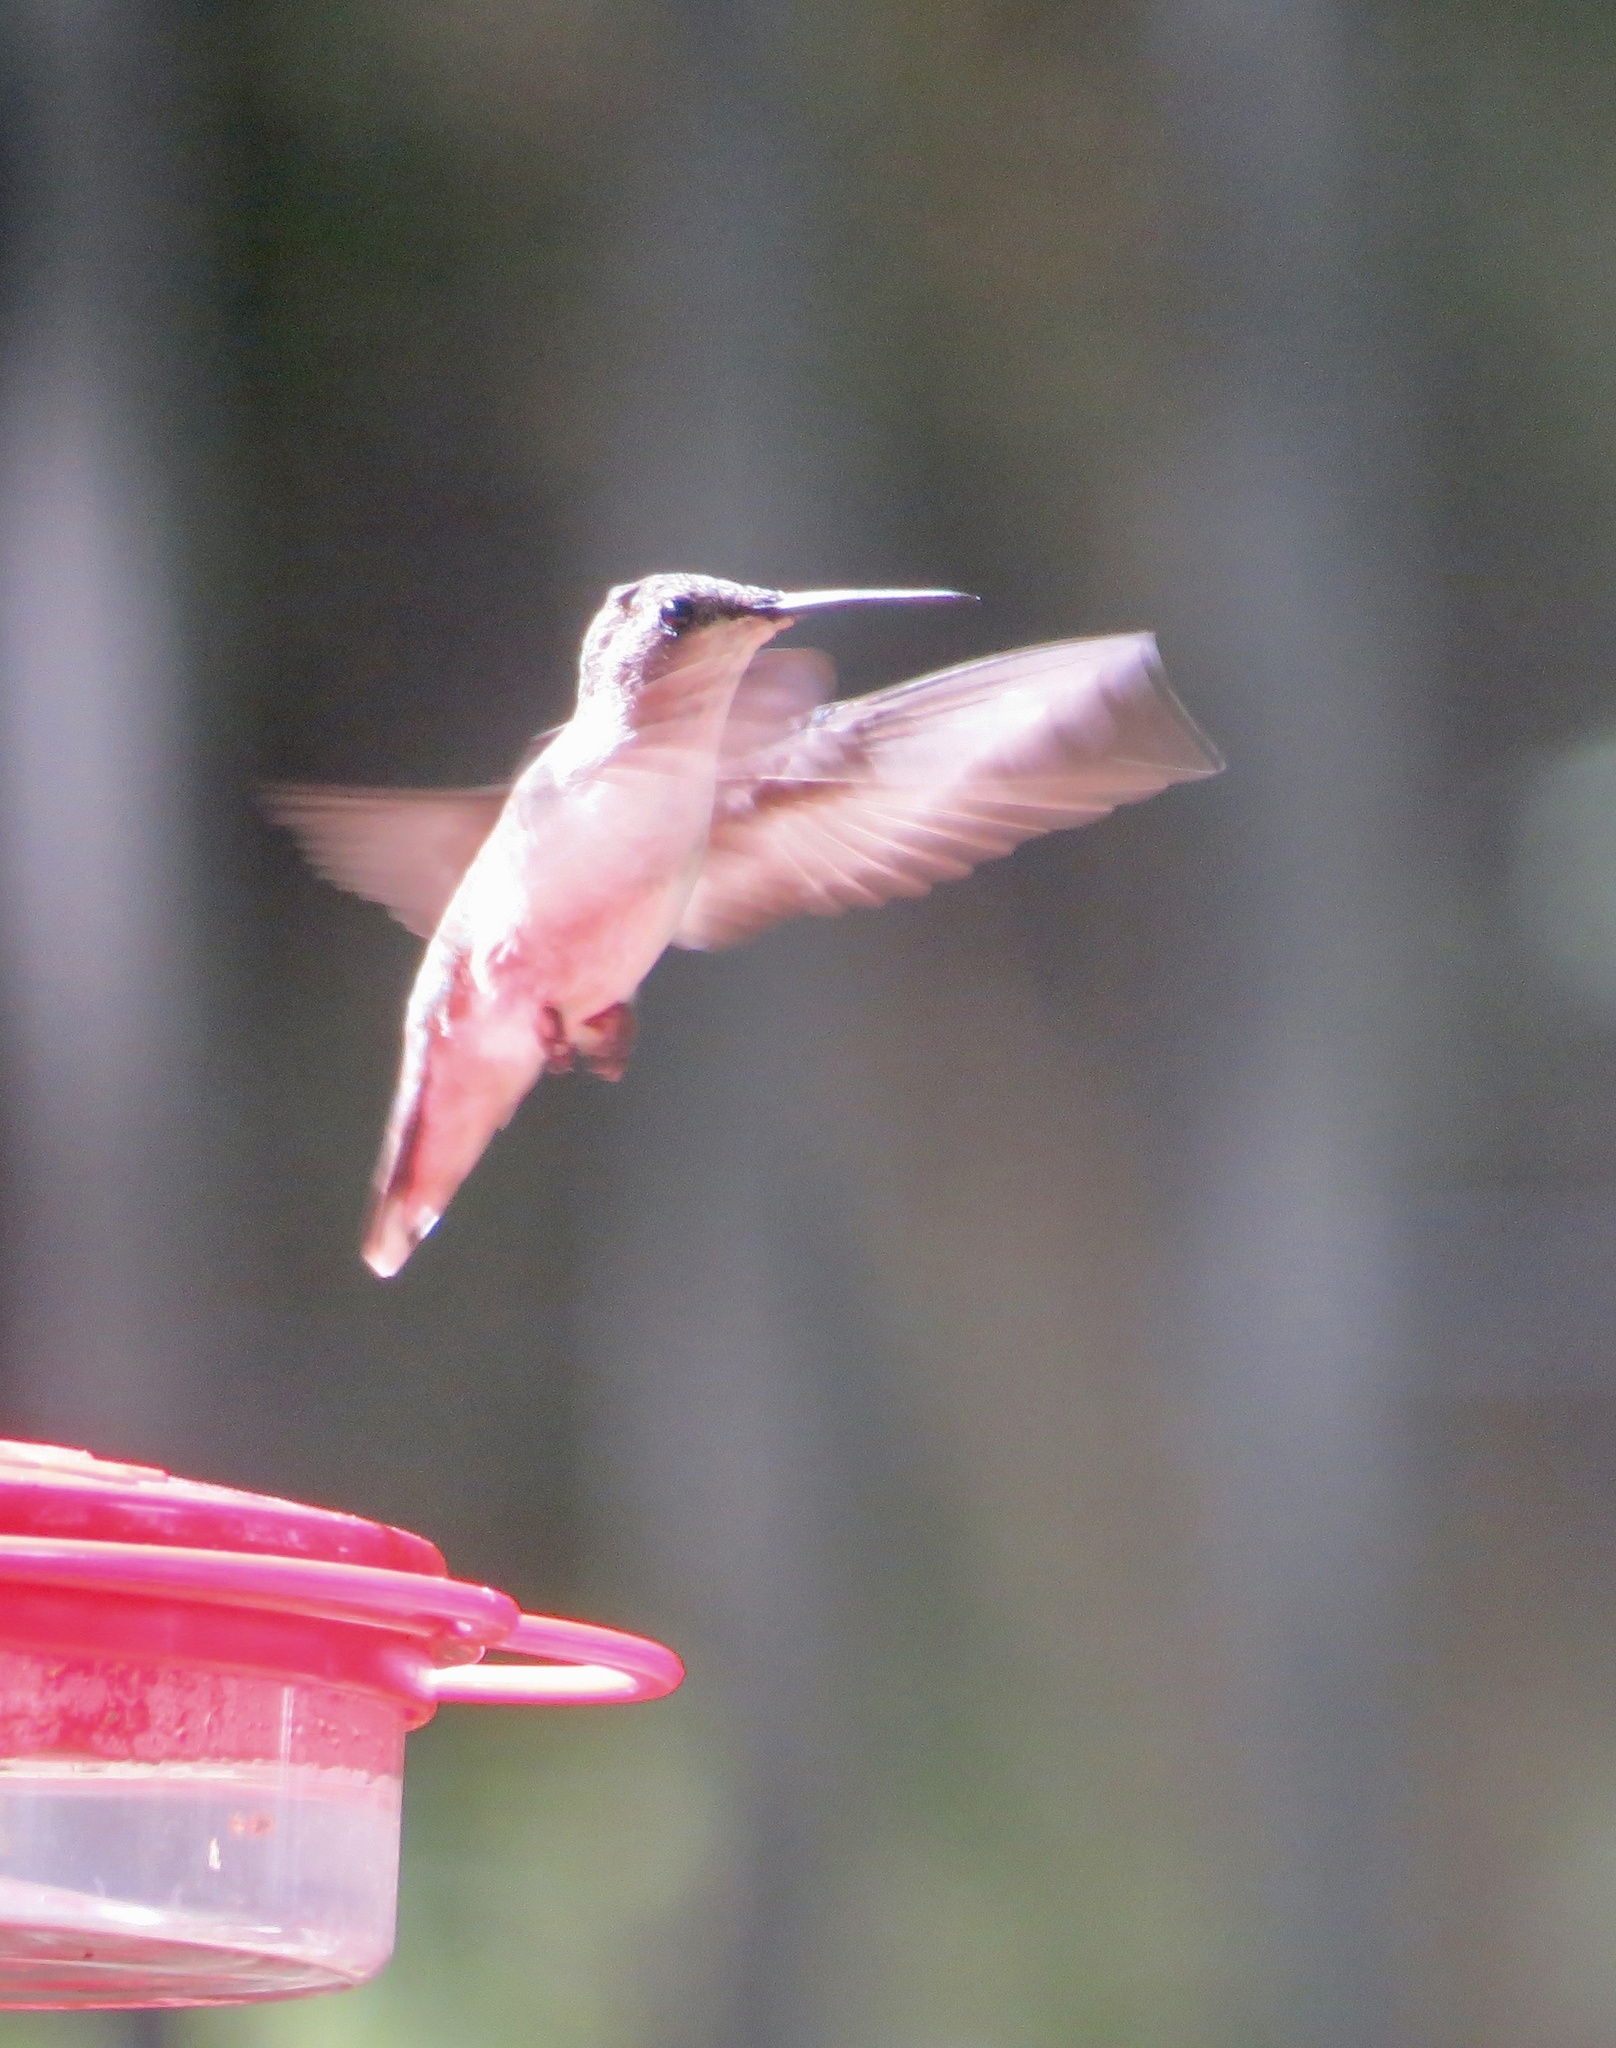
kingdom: Animalia
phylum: Chordata
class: Aves
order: Apodiformes
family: Trochilidae
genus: Archilochus
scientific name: Archilochus colubris
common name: Ruby-throated hummingbird
